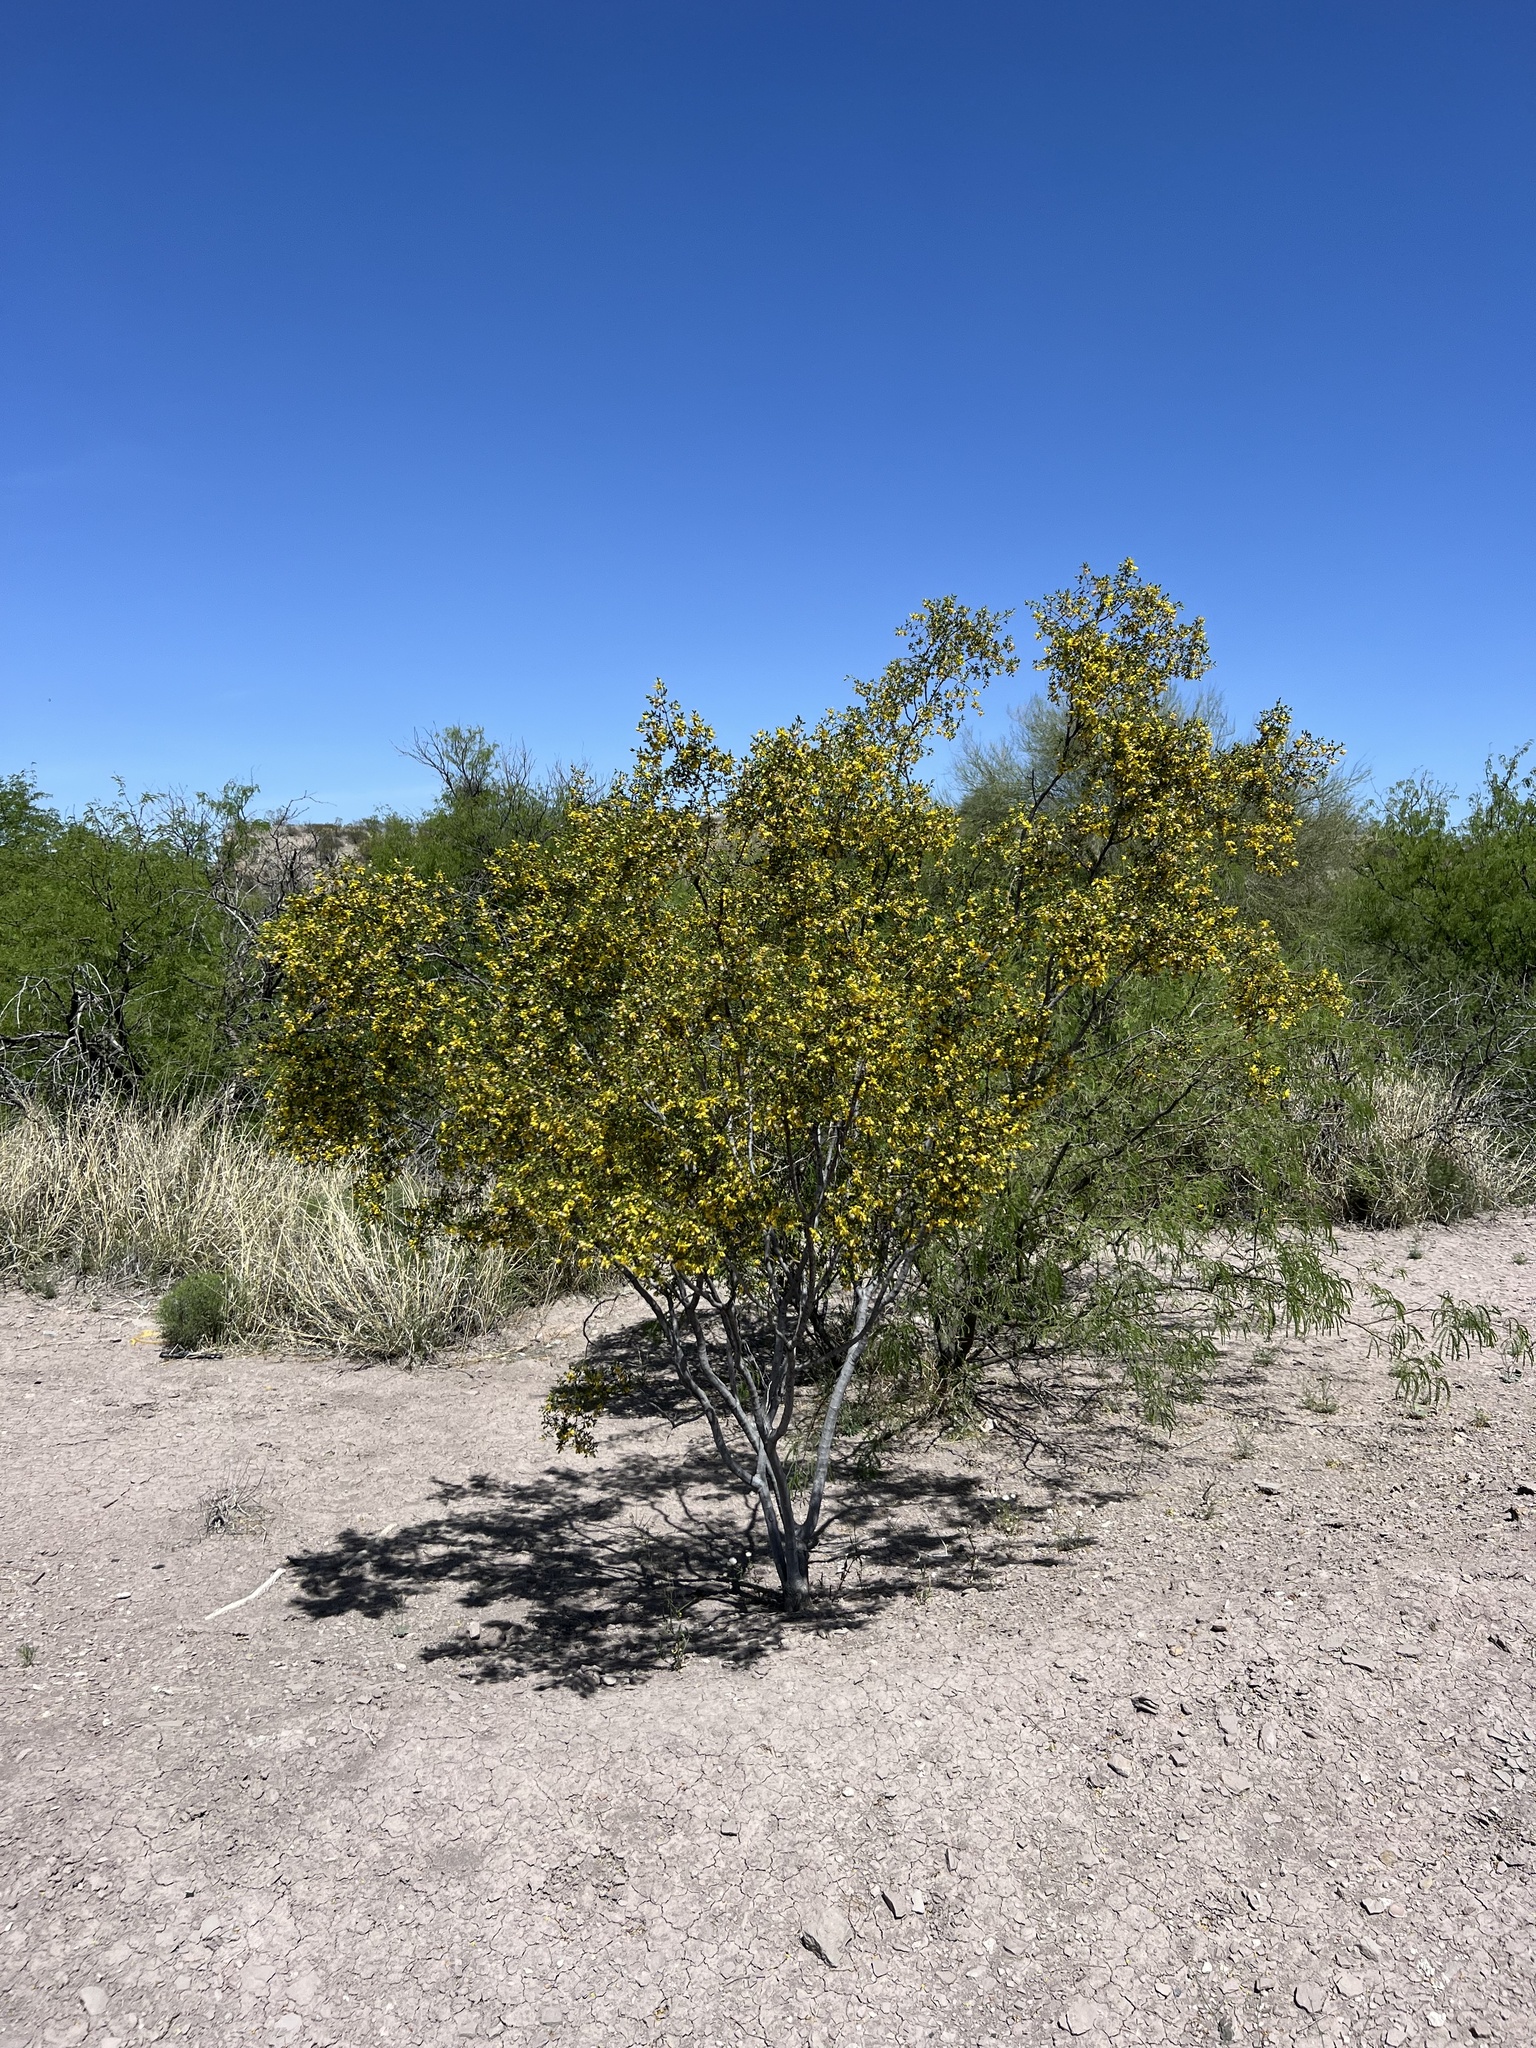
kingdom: Plantae
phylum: Tracheophyta
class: Magnoliopsida
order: Zygophyllales
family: Zygophyllaceae
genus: Larrea
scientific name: Larrea tridentata
